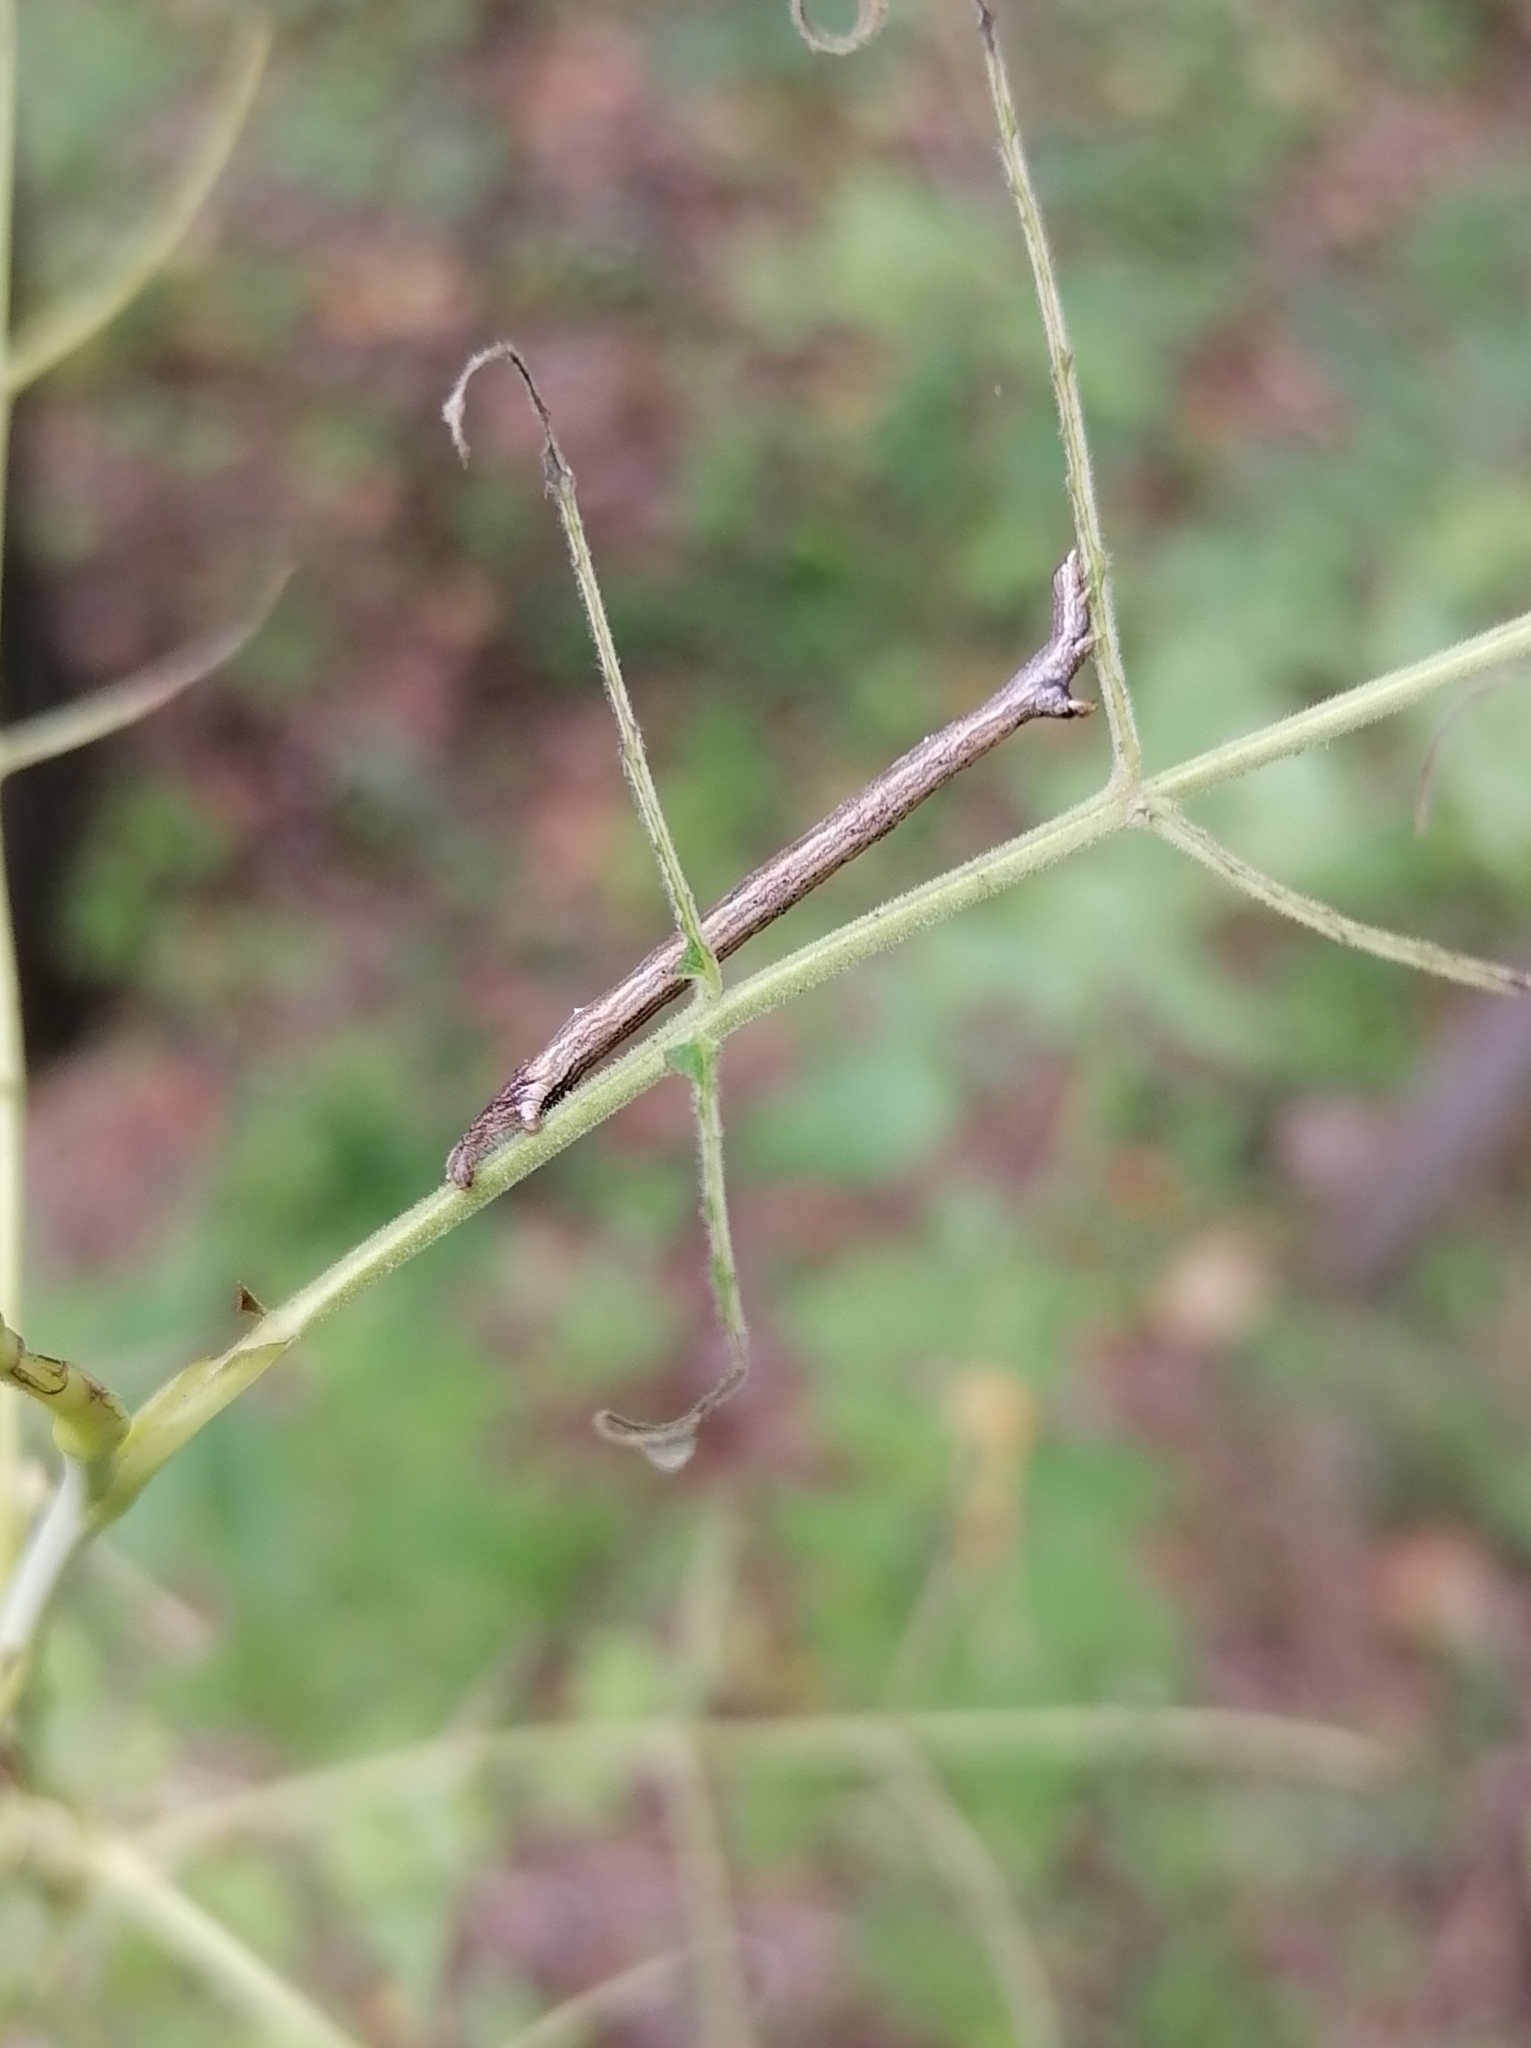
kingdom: Animalia
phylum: Arthropoda
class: Insecta
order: Lepidoptera
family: Geometridae
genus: Angerona
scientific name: Angerona prunaria
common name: Orange moth
